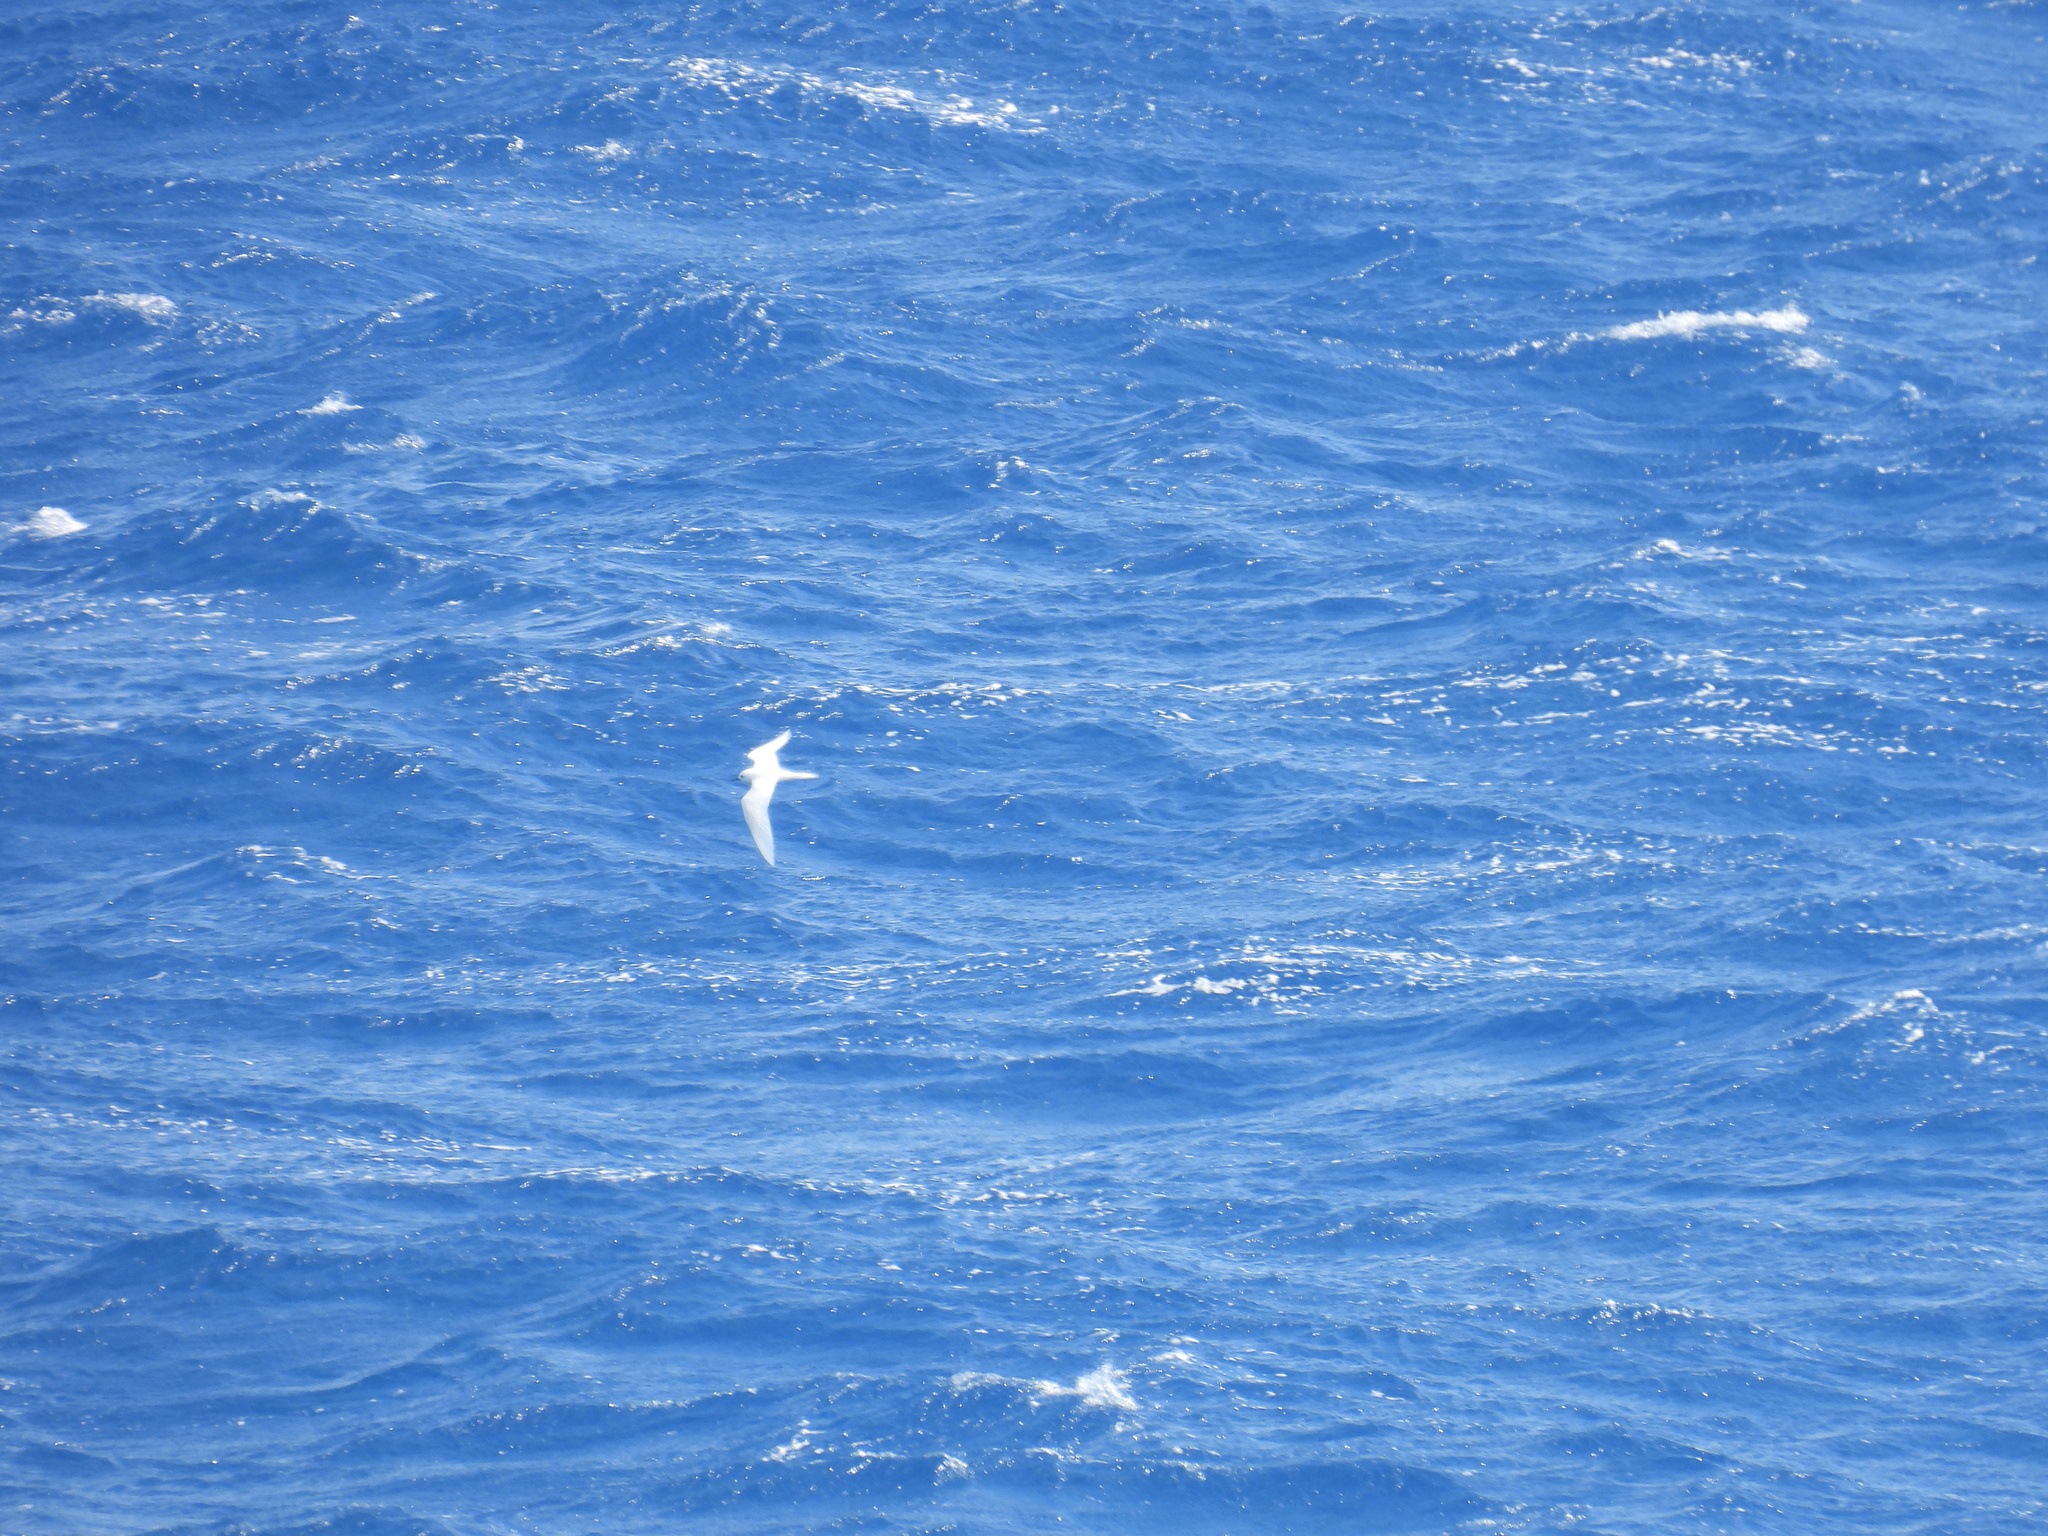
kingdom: Animalia
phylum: Chordata
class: Aves
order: Charadriiformes
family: Laridae
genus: Gygis
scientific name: Gygis alba
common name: White tern
